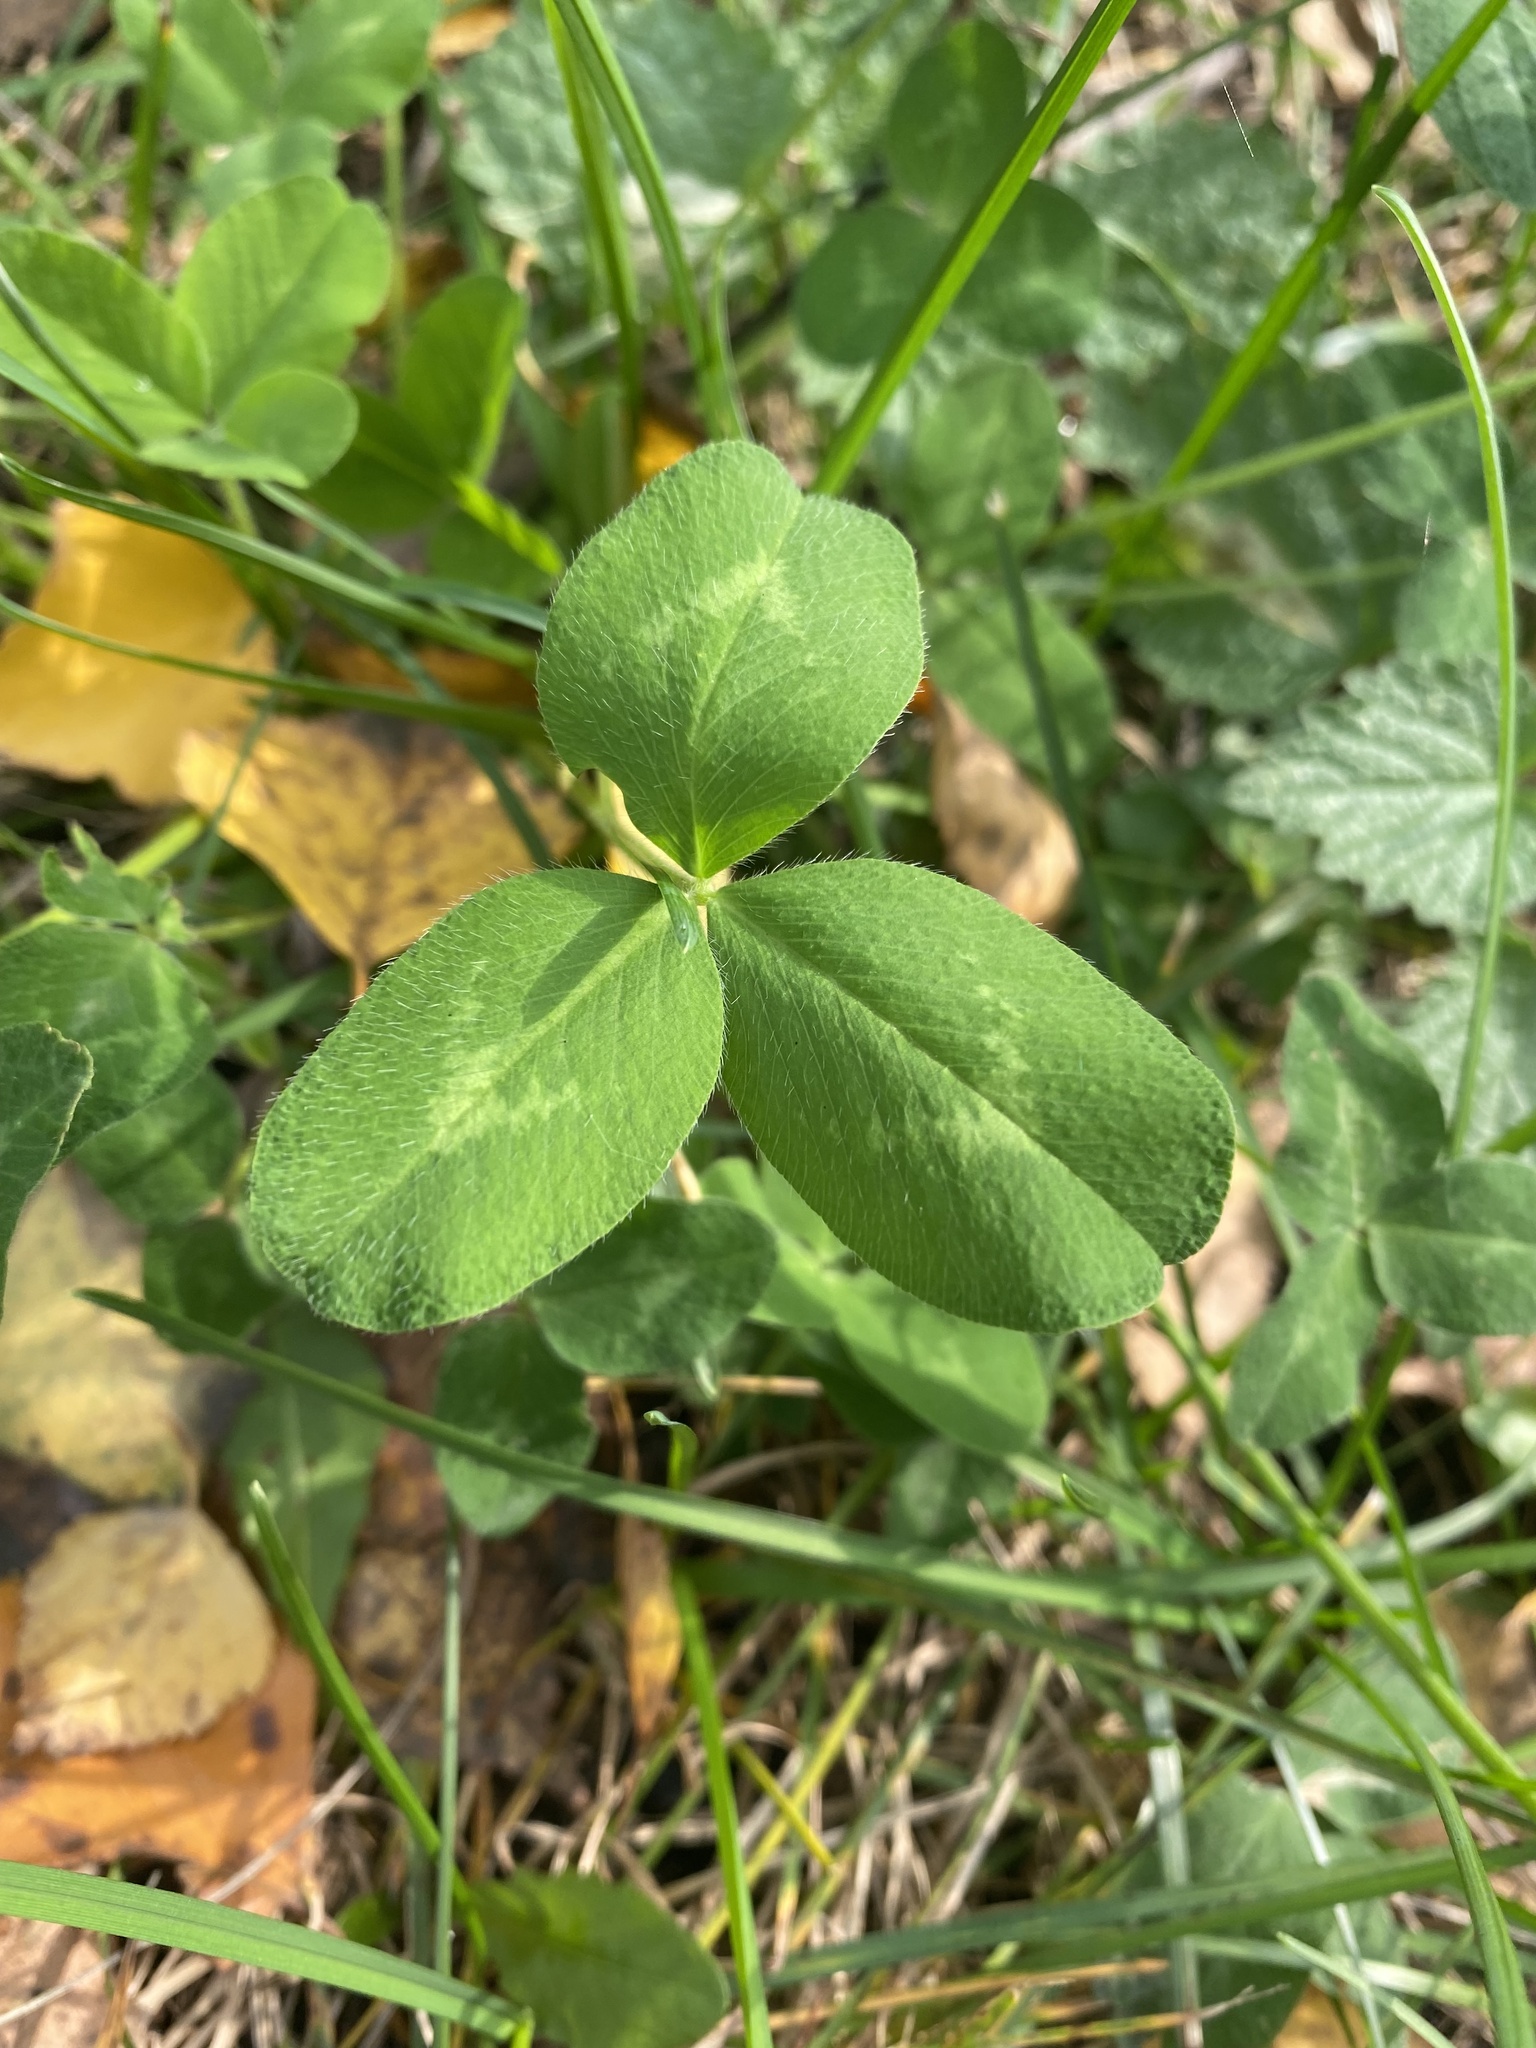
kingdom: Plantae
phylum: Tracheophyta
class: Magnoliopsida
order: Fabales
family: Fabaceae
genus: Trifolium
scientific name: Trifolium pratense
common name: Red clover
